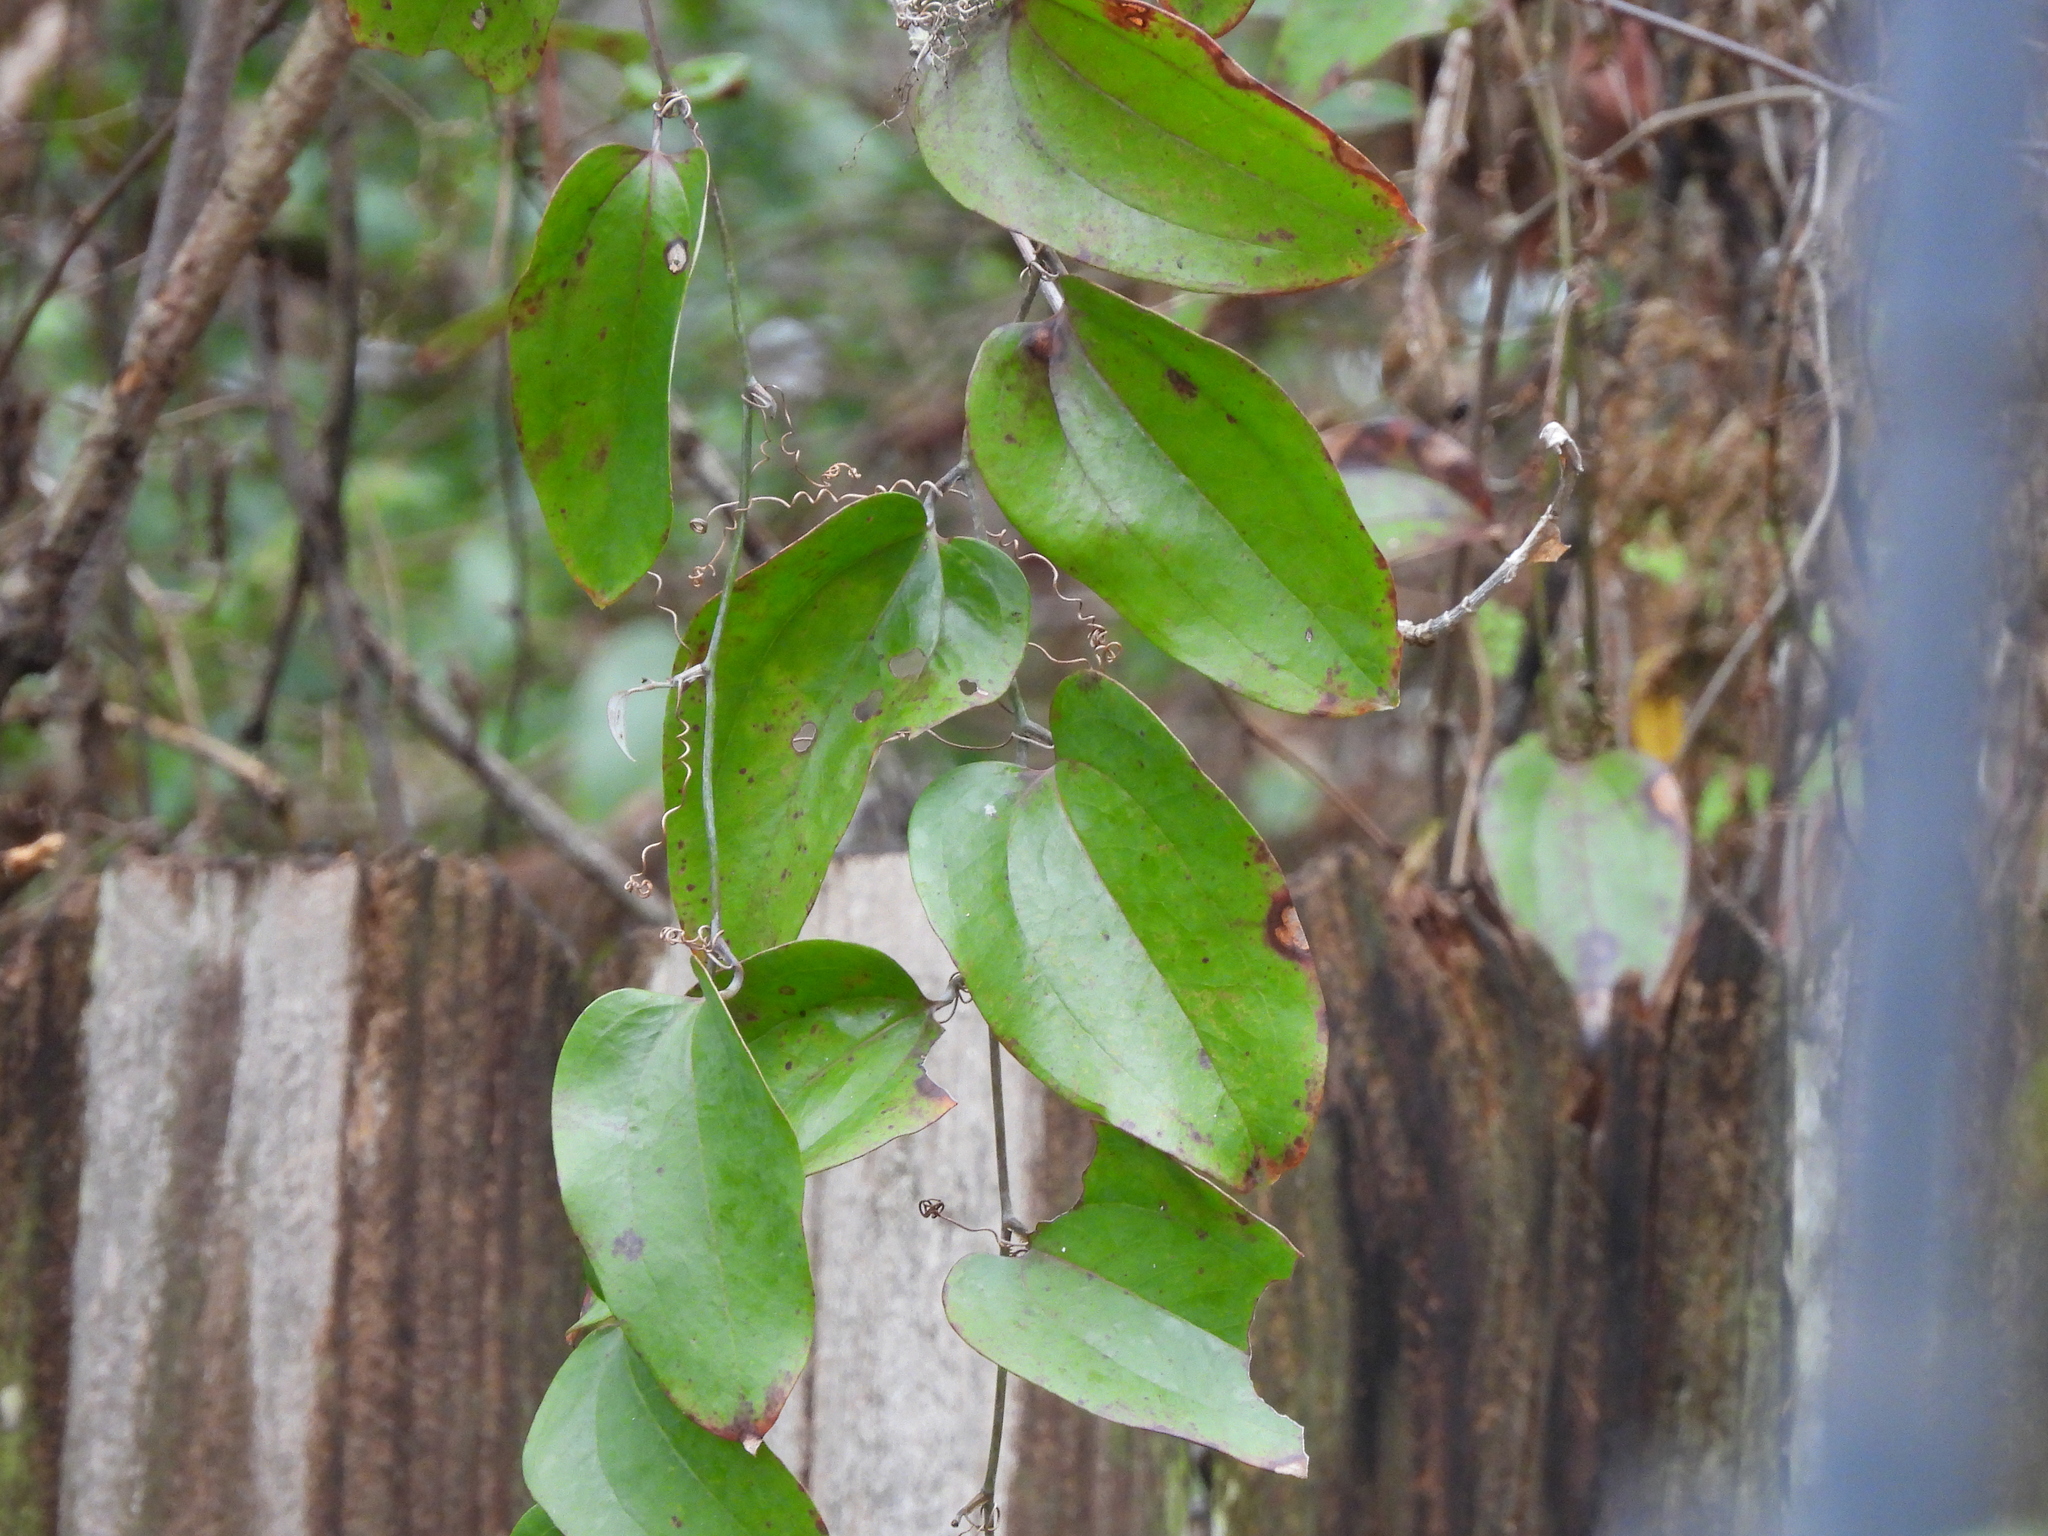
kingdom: Plantae
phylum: Tracheophyta
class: Liliopsida
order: Liliales
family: Smilacaceae
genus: Smilax
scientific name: Smilax glauca
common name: Cat greenbrier
